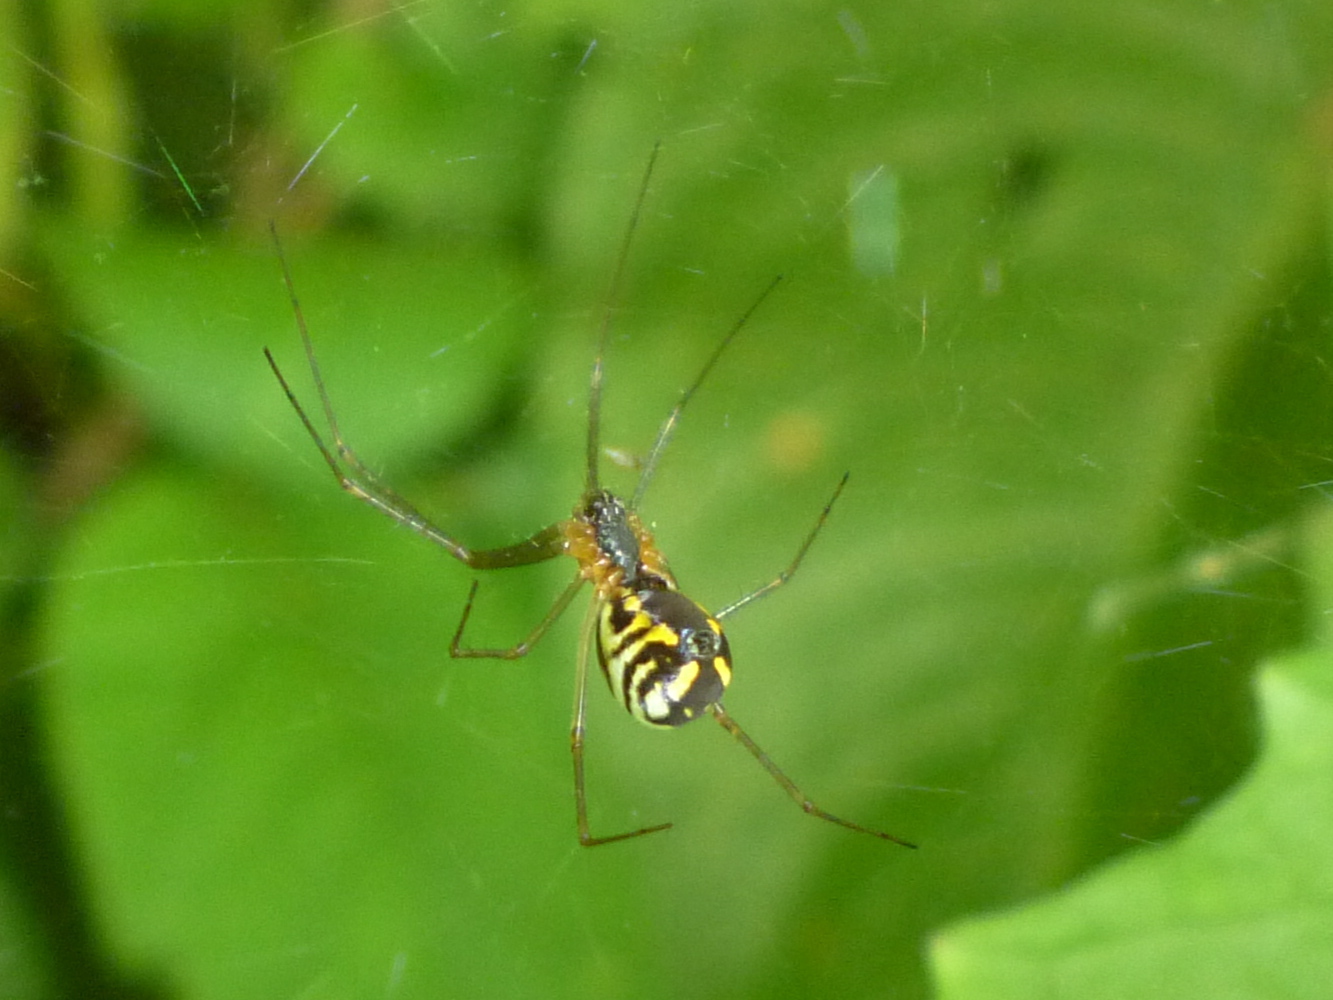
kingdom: Animalia
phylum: Arthropoda
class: Arachnida
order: Araneae
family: Linyphiidae
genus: Neriene
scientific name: Neriene radiata
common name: Filmy dome spider
